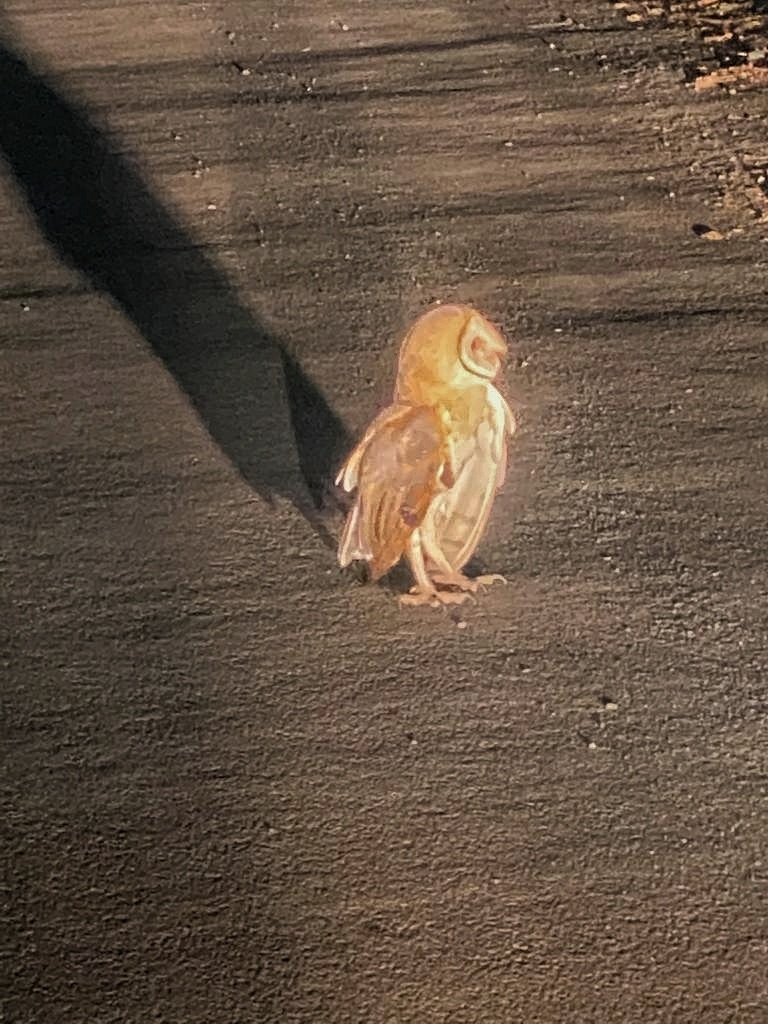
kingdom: Animalia
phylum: Chordata
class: Aves
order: Strigiformes
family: Tytonidae
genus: Tyto
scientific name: Tyto alba
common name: Barn owl
